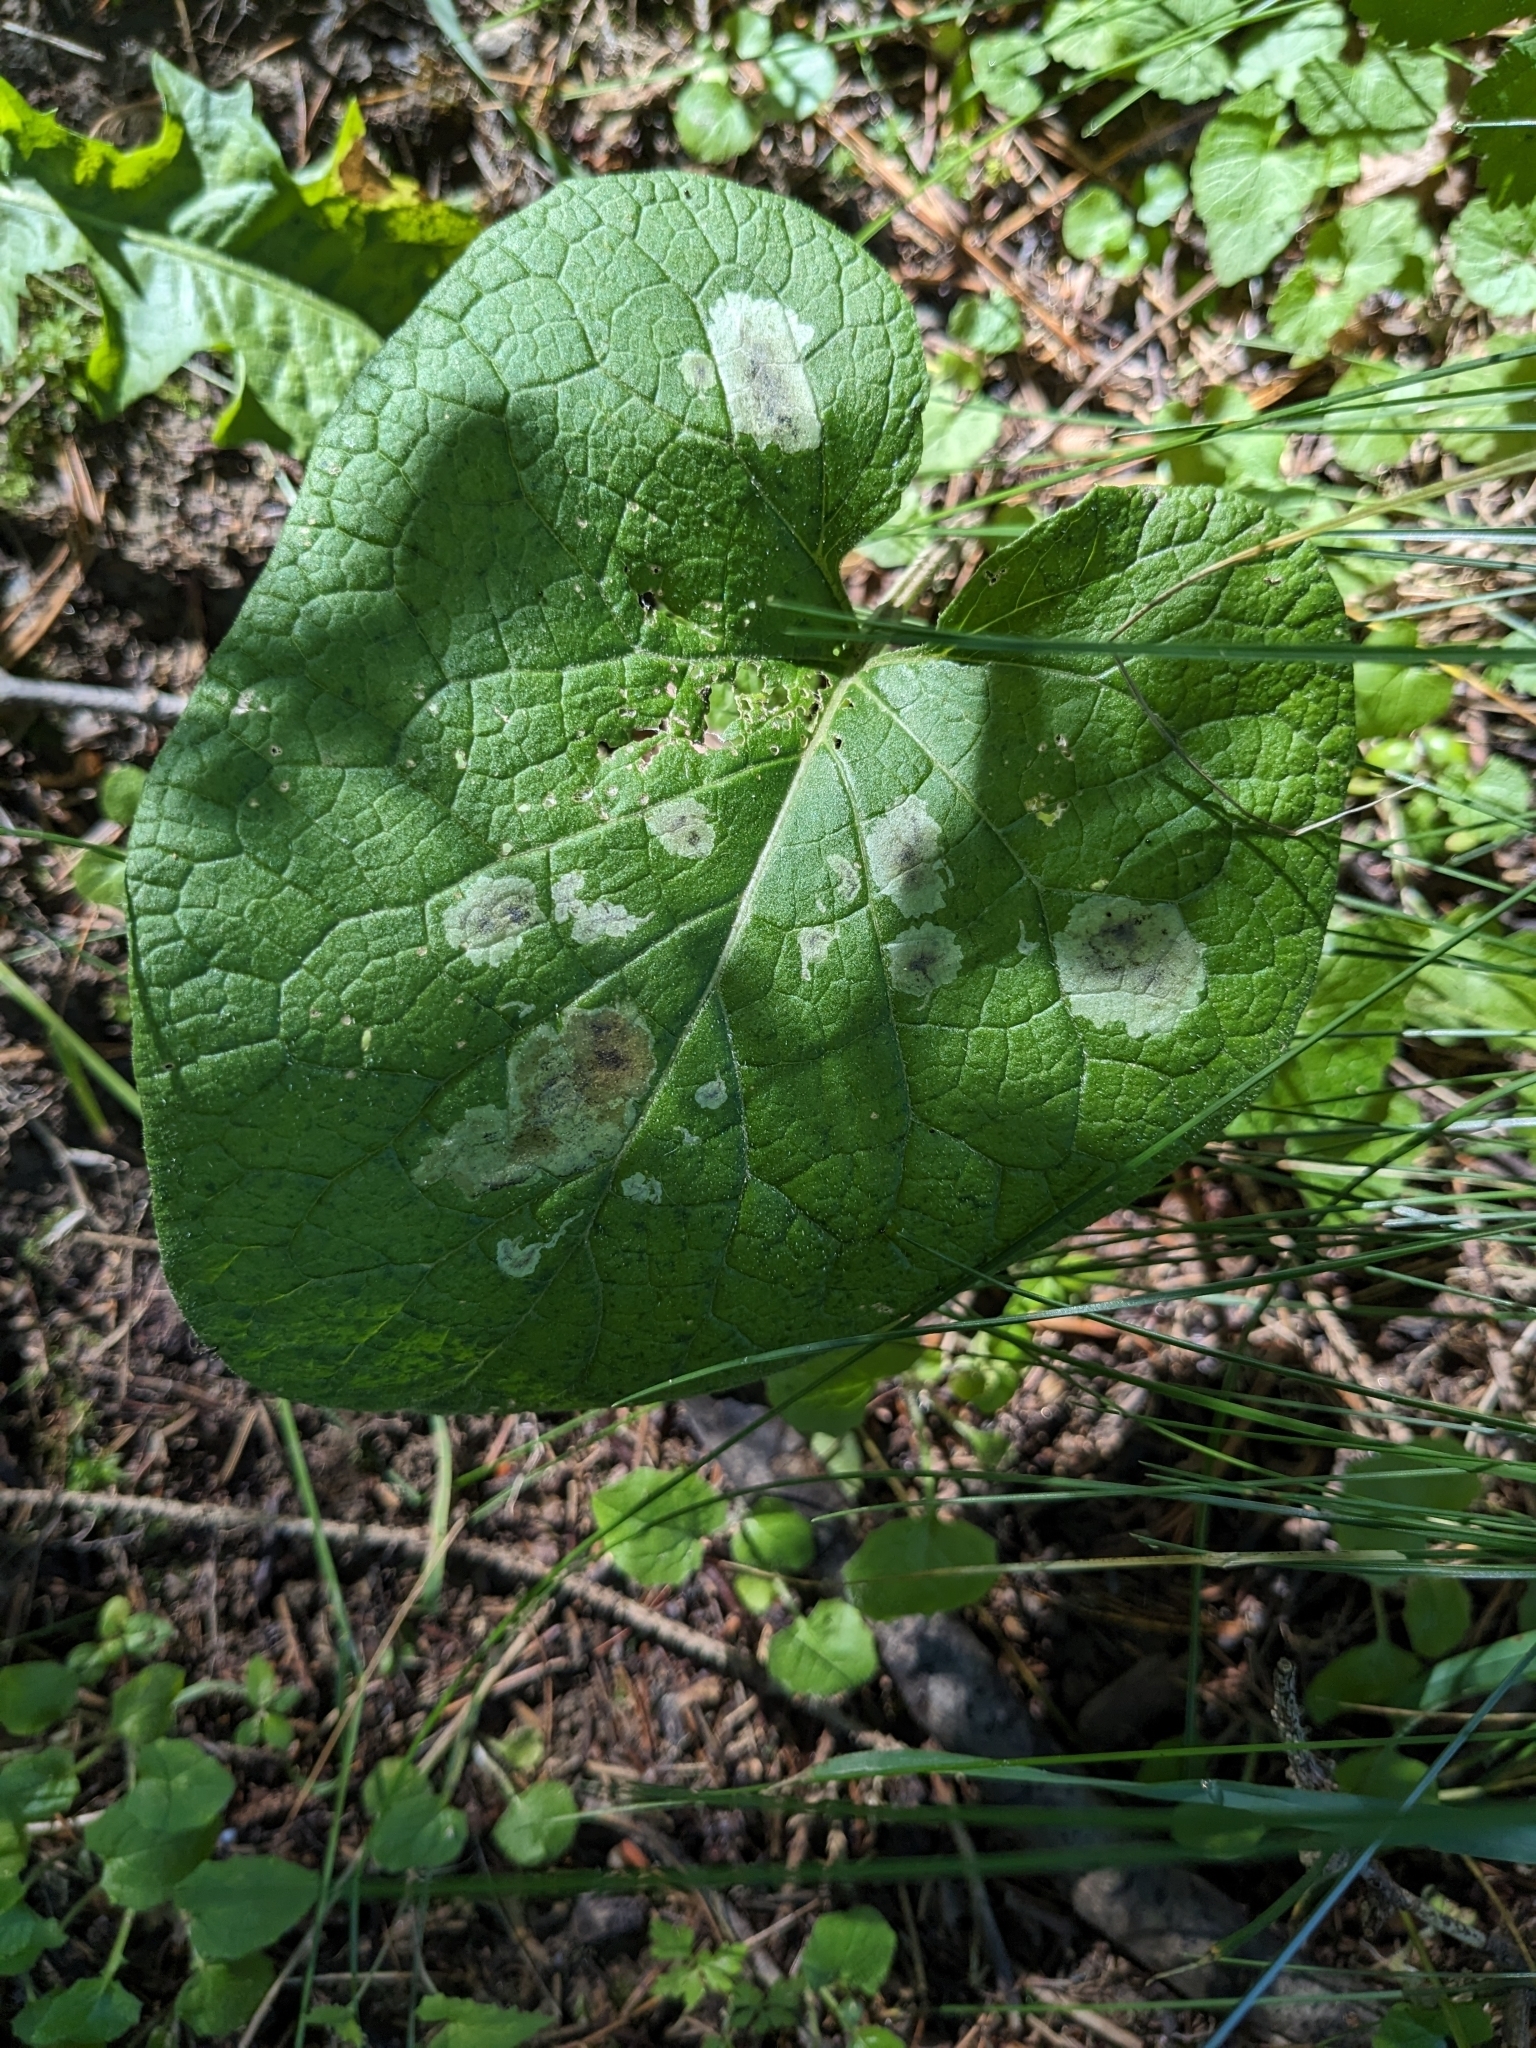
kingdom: Plantae
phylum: Tracheophyta
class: Magnoliopsida
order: Asterales
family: Asteraceae
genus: Arctium
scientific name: Arctium
